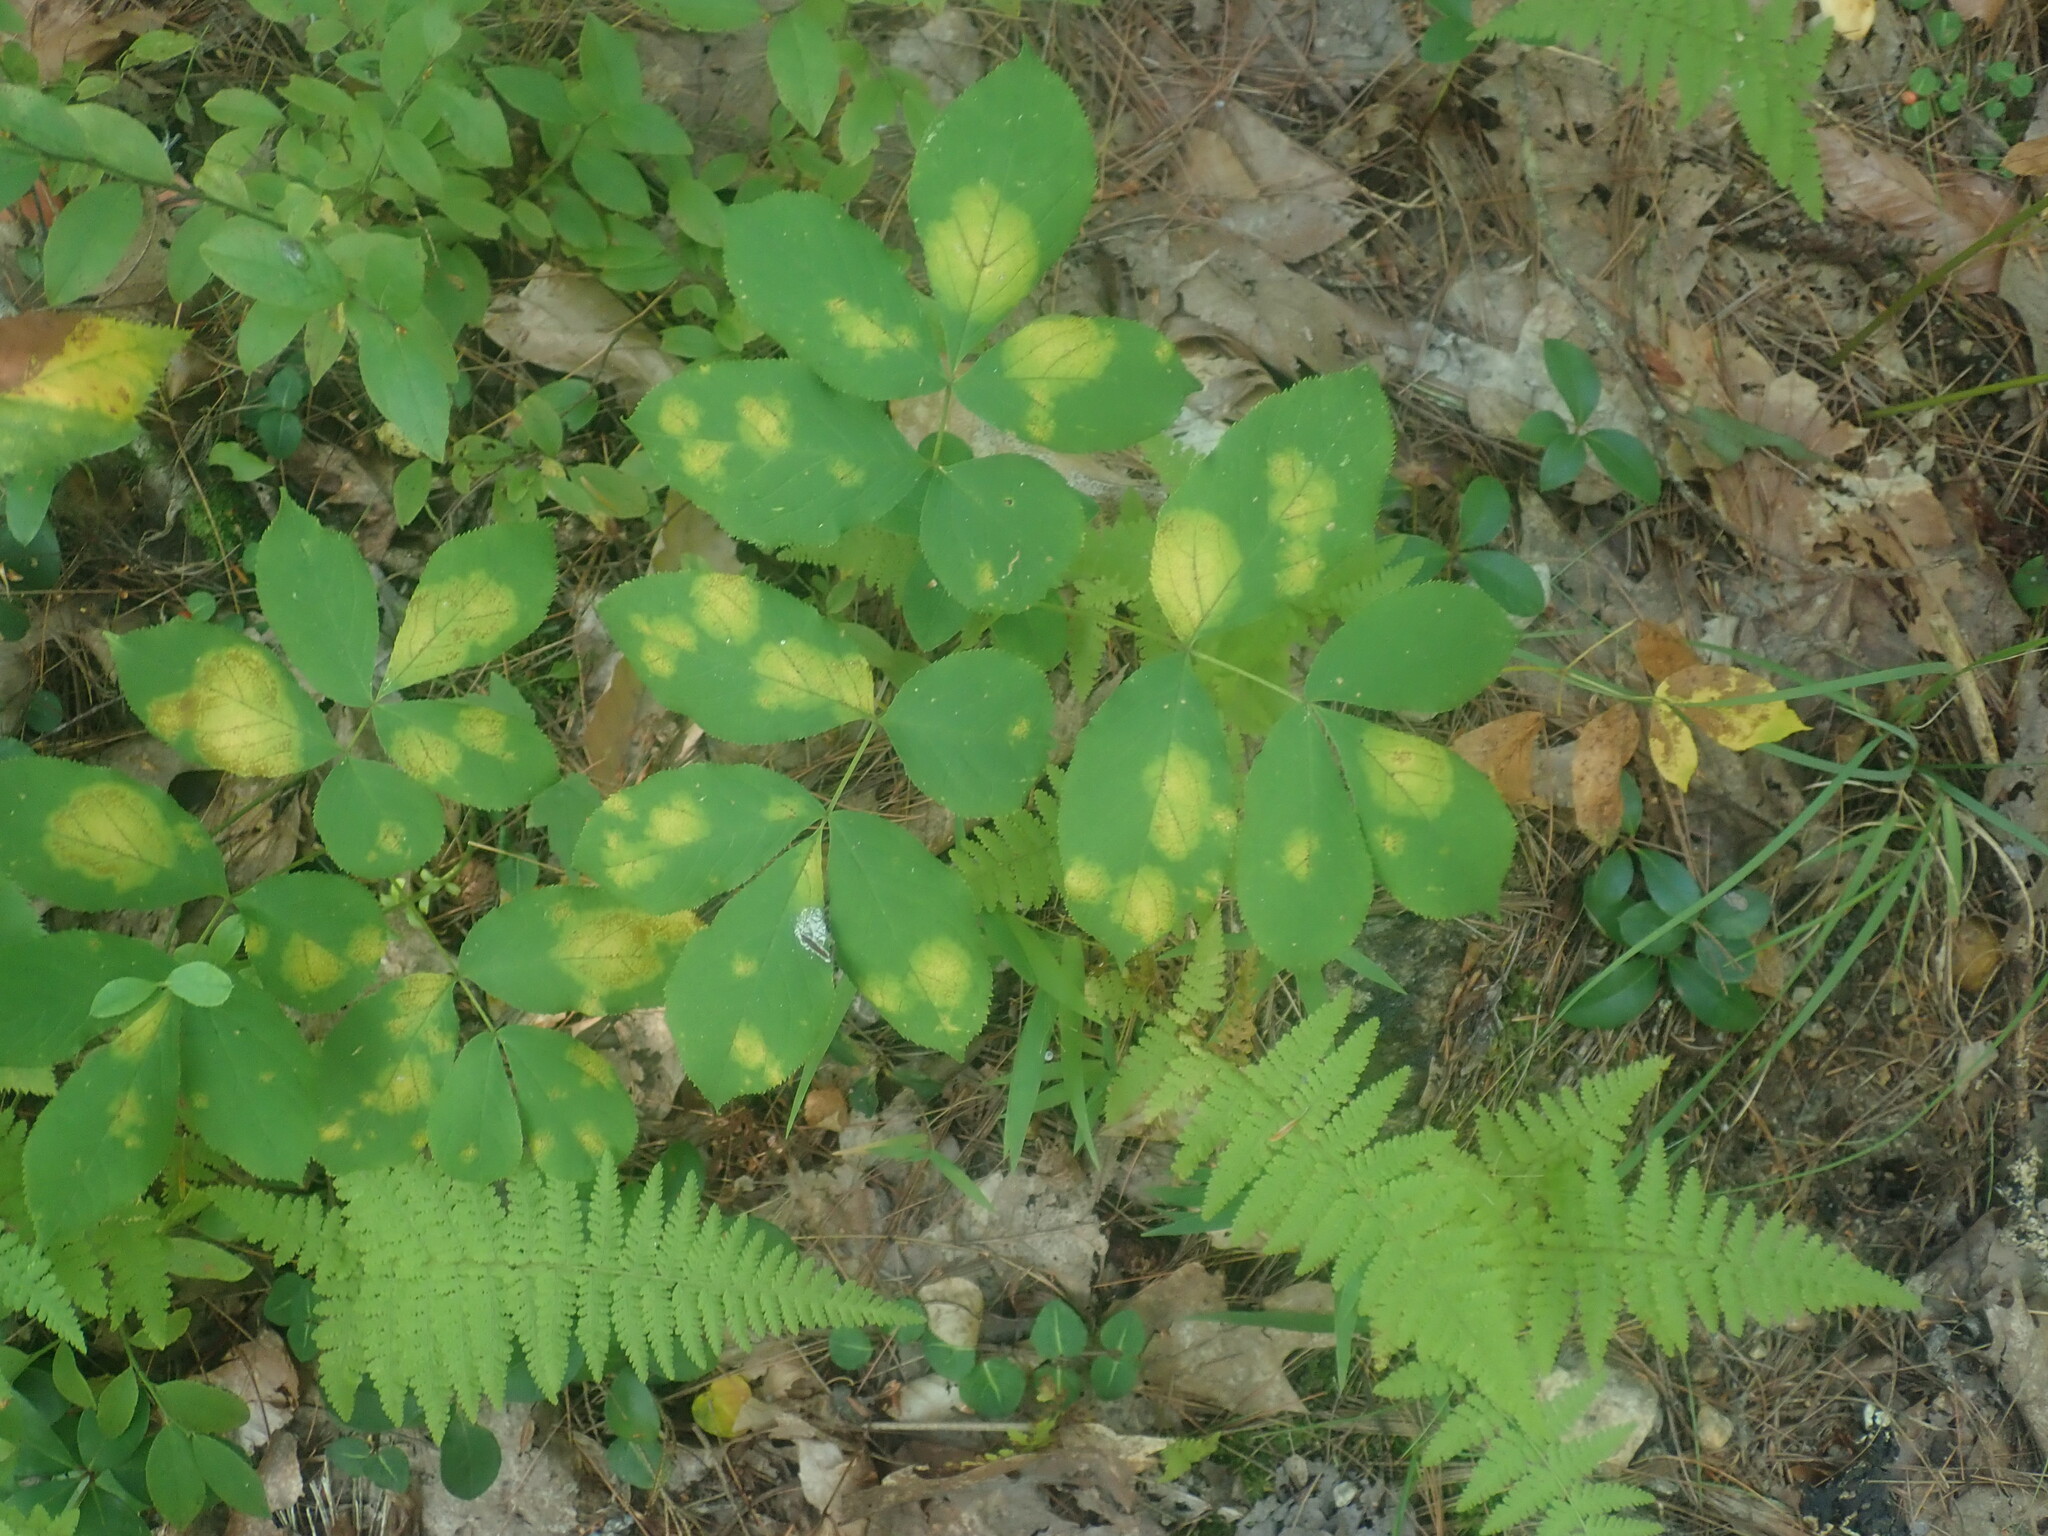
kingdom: Plantae
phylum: Tracheophyta
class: Magnoliopsida
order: Apiales
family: Araliaceae
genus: Aralia
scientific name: Aralia nudicaulis
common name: Wild sarsaparilla
